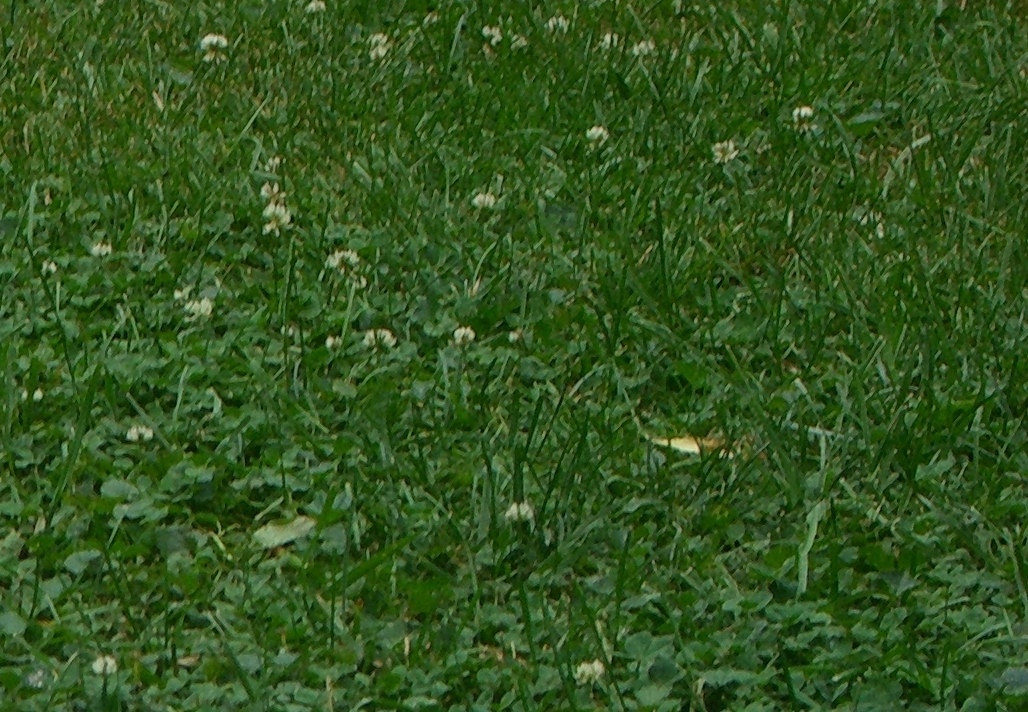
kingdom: Plantae
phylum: Tracheophyta
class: Magnoliopsida
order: Fabales
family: Fabaceae
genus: Trifolium
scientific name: Trifolium repens
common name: White clover
